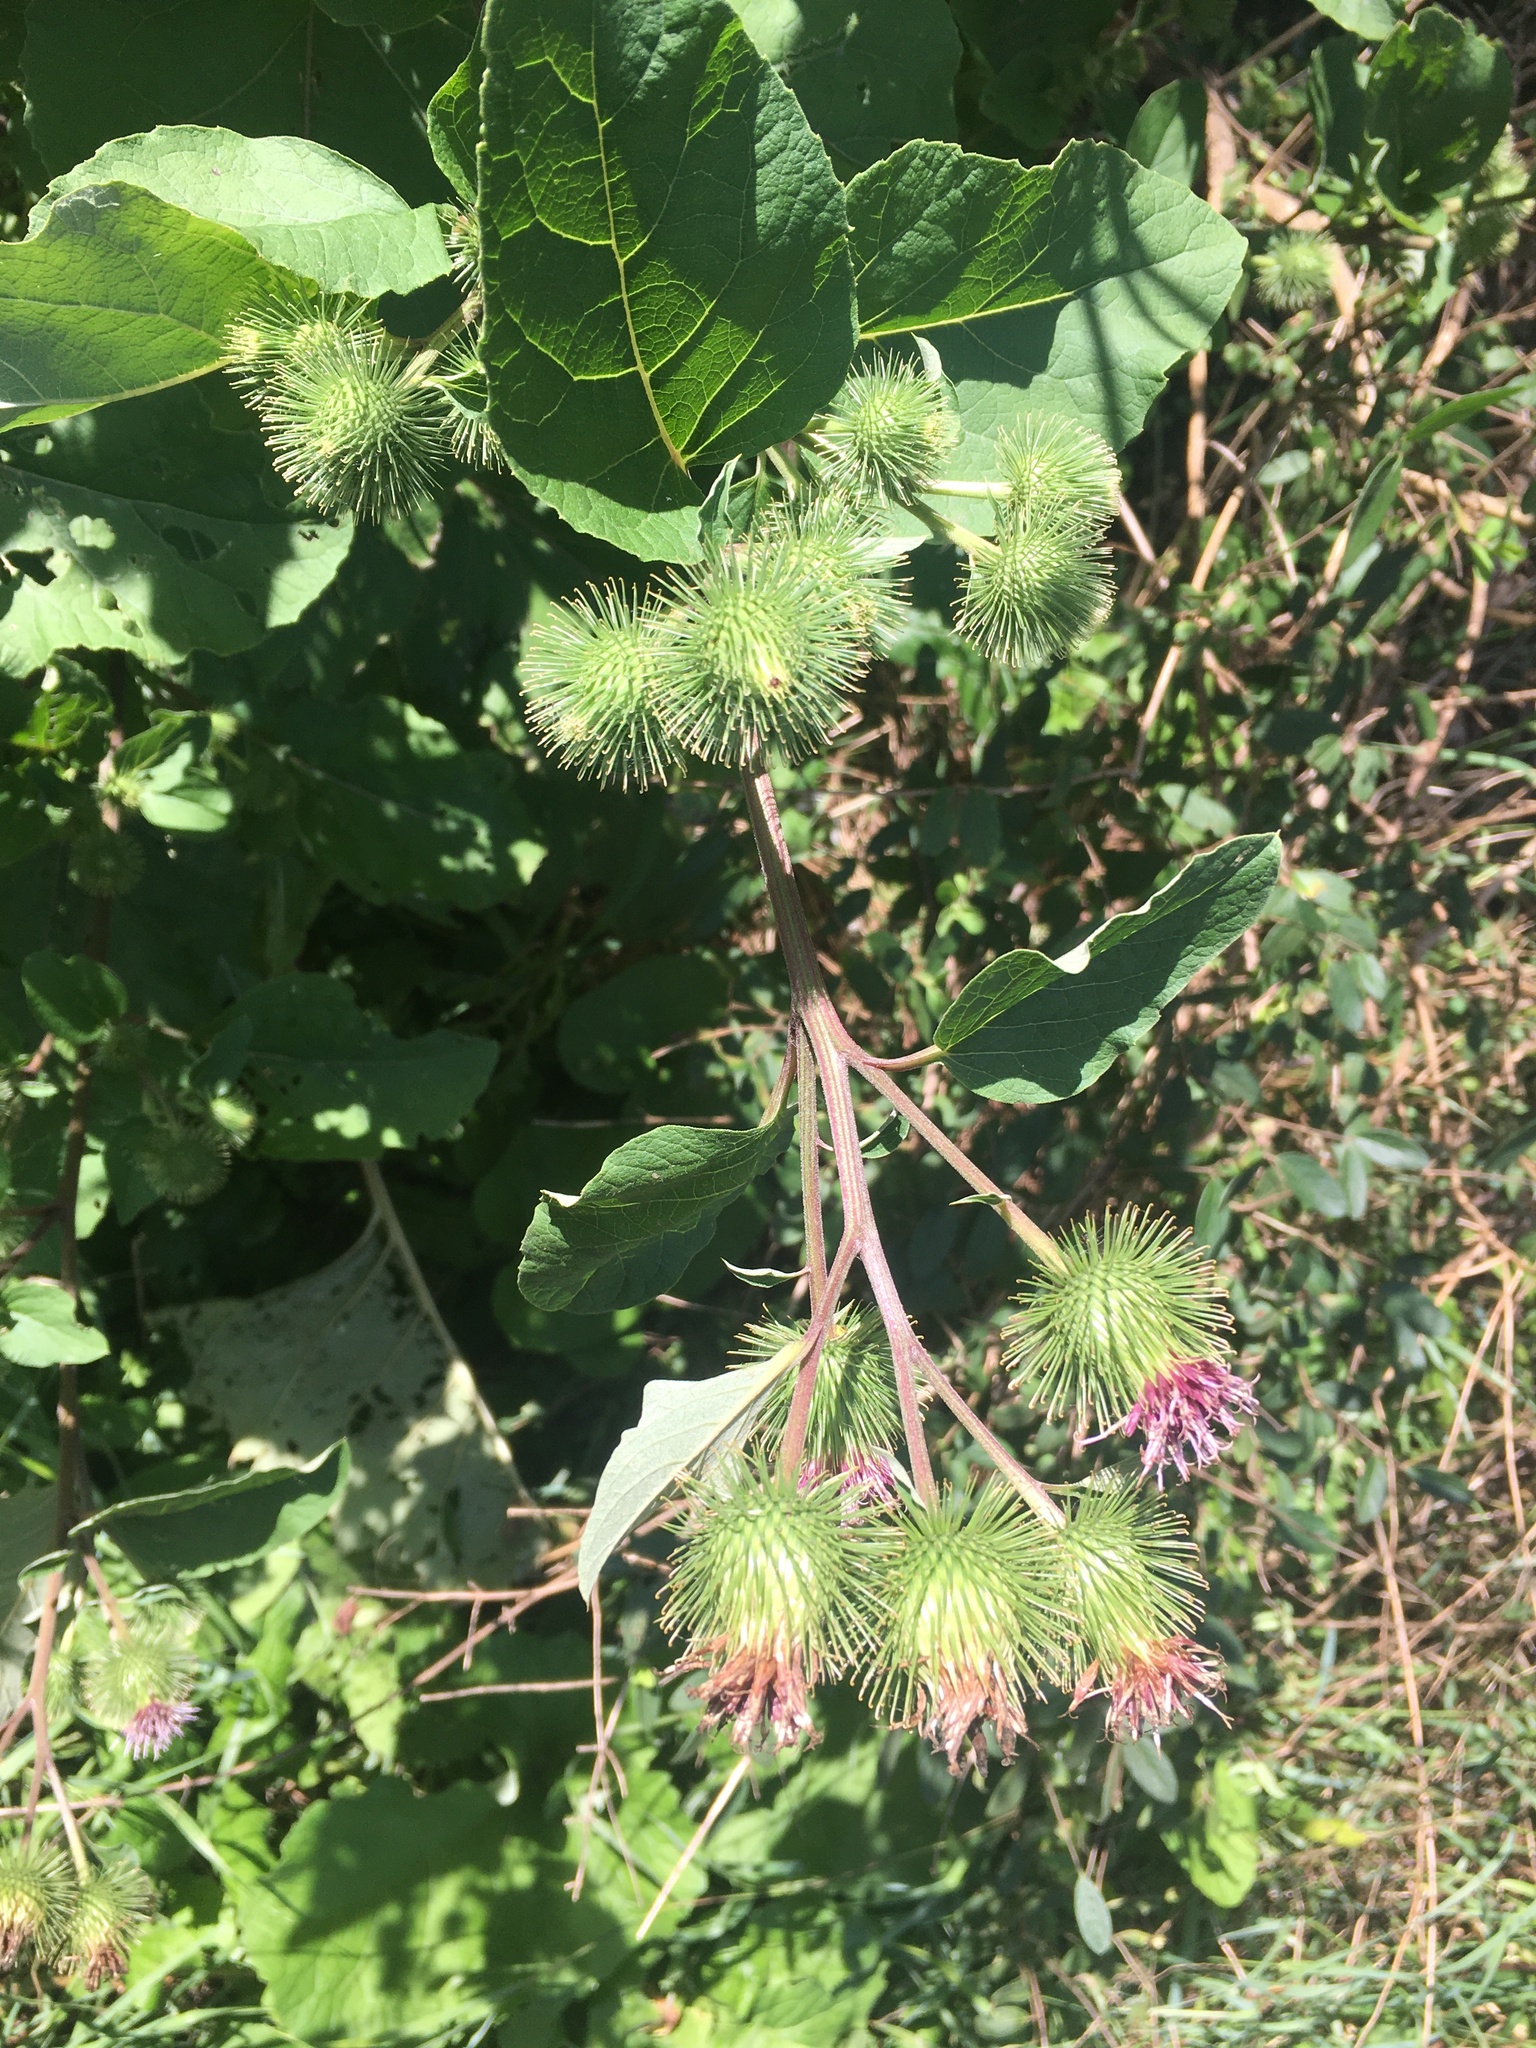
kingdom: Plantae
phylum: Tracheophyta
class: Magnoliopsida
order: Asterales
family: Asteraceae
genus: Arctium
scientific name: Arctium lappa
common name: Greater burdock
